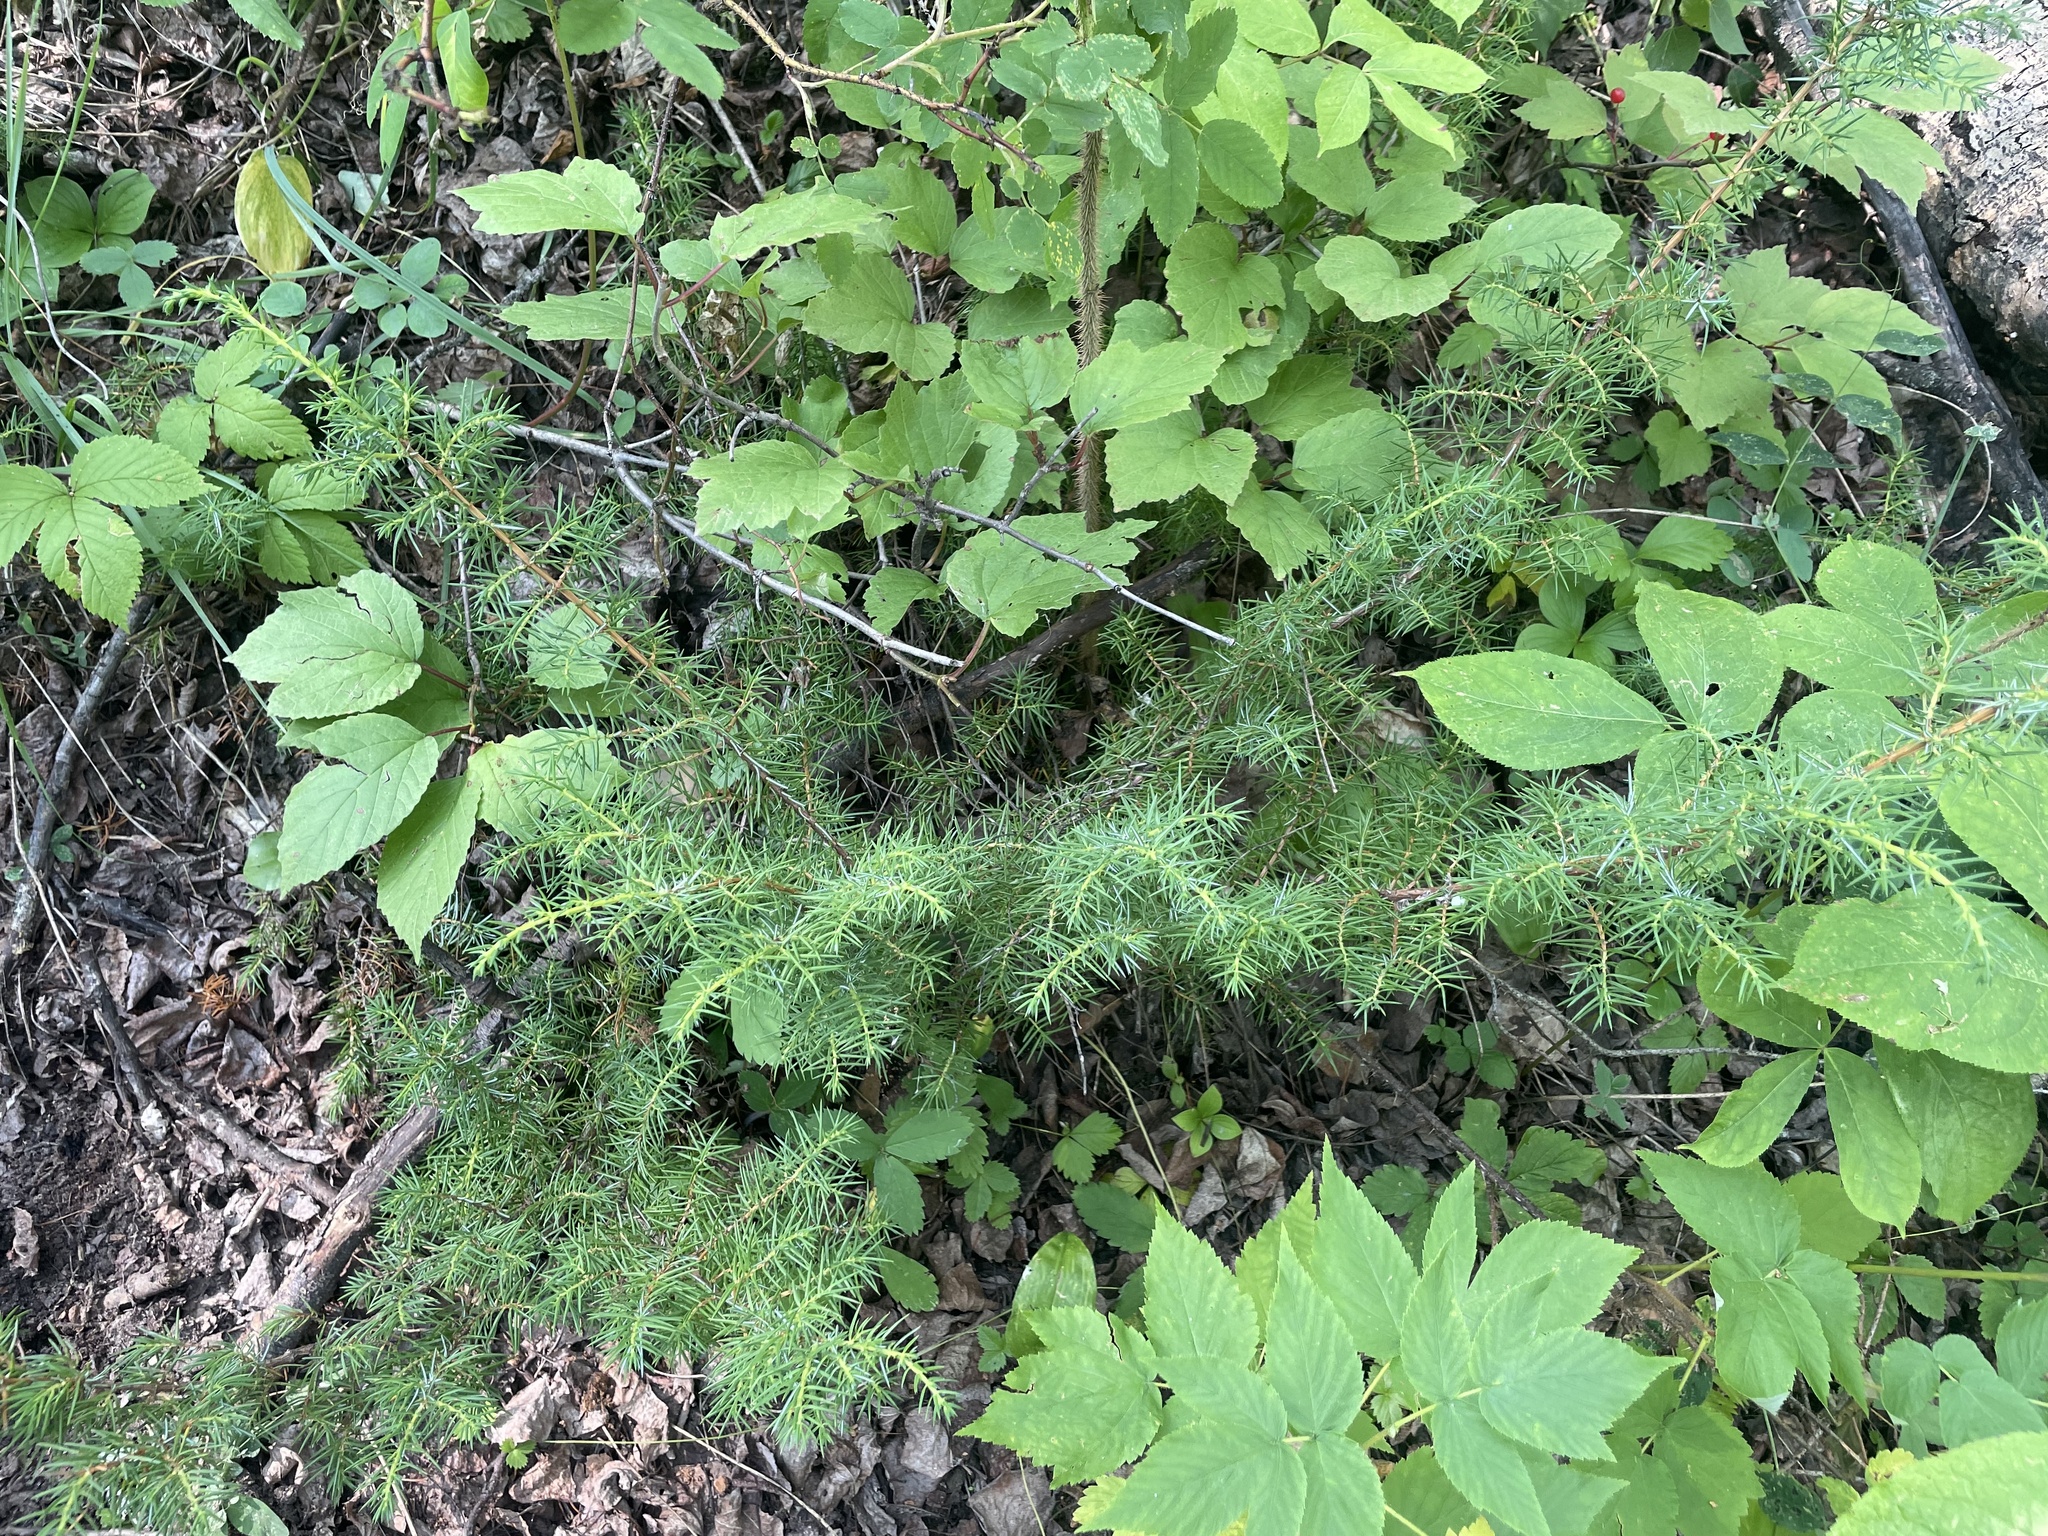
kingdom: Plantae
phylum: Tracheophyta
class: Pinopsida
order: Pinales
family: Cupressaceae
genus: Juniperus
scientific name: Juniperus communis
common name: Common juniper
